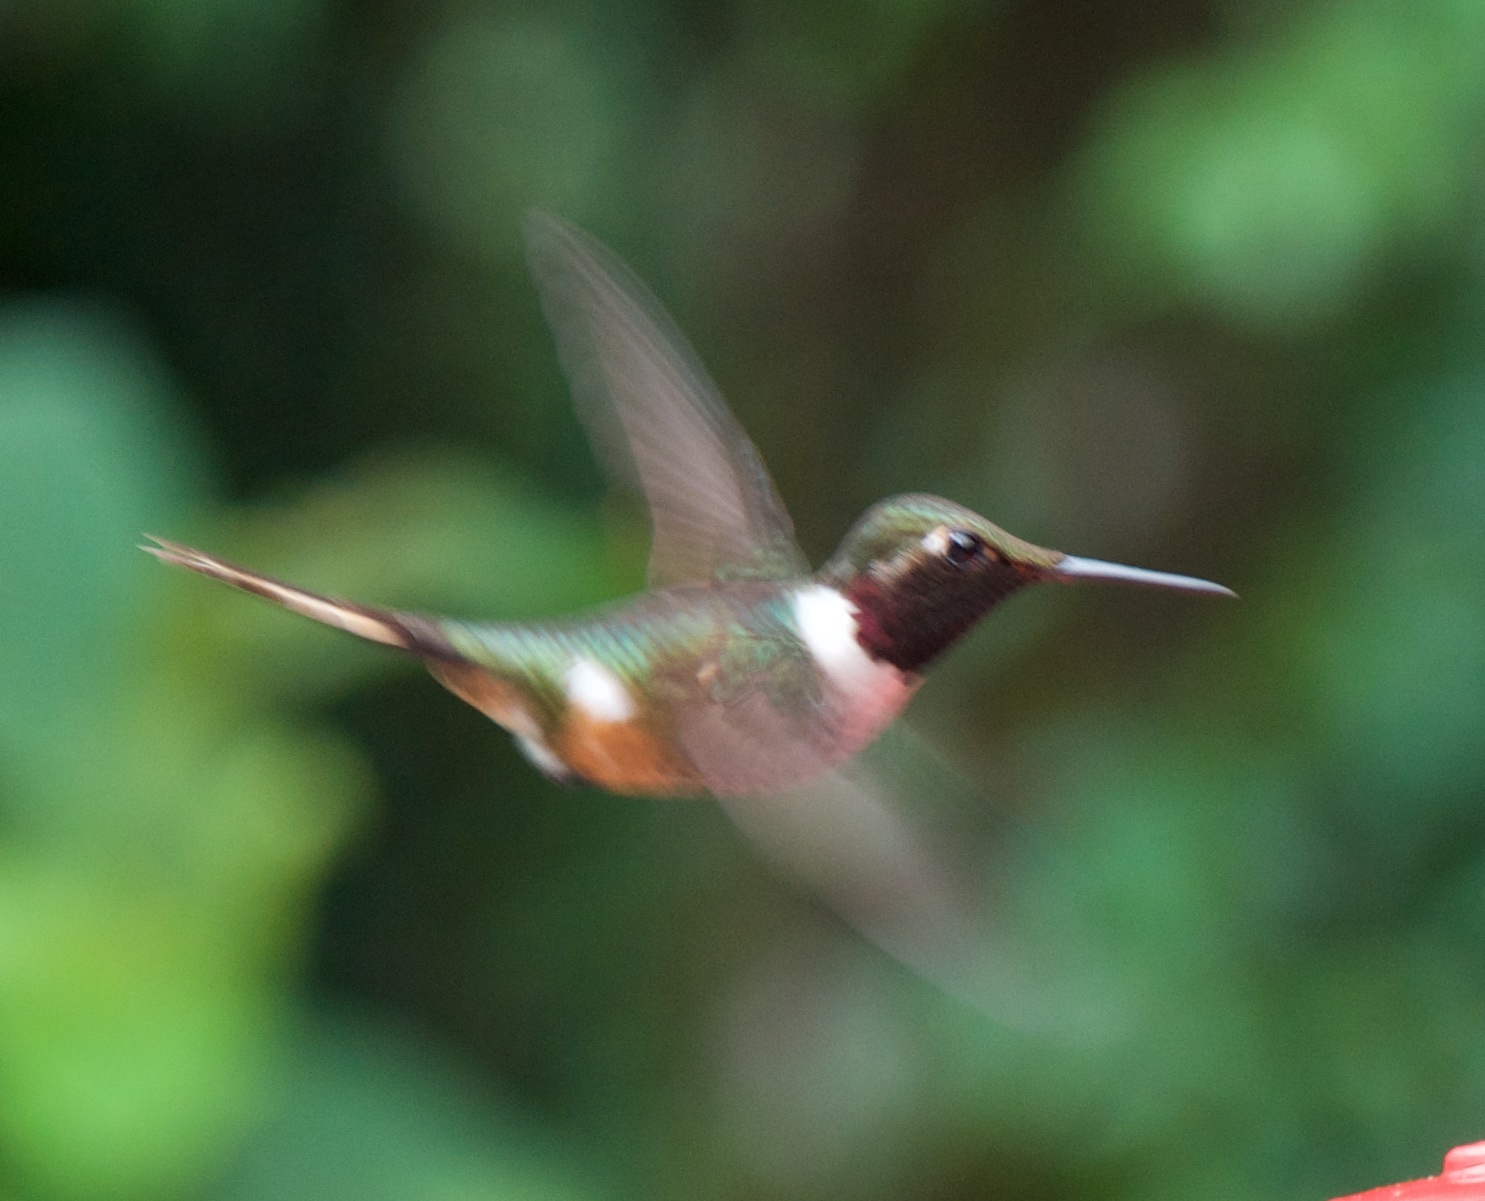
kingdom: Animalia
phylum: Chordata
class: Aves
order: Apodiformes
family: Trochilidae
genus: Calliphlox
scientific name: Calliphlox bryantae
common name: Magenta-throated woodstar
